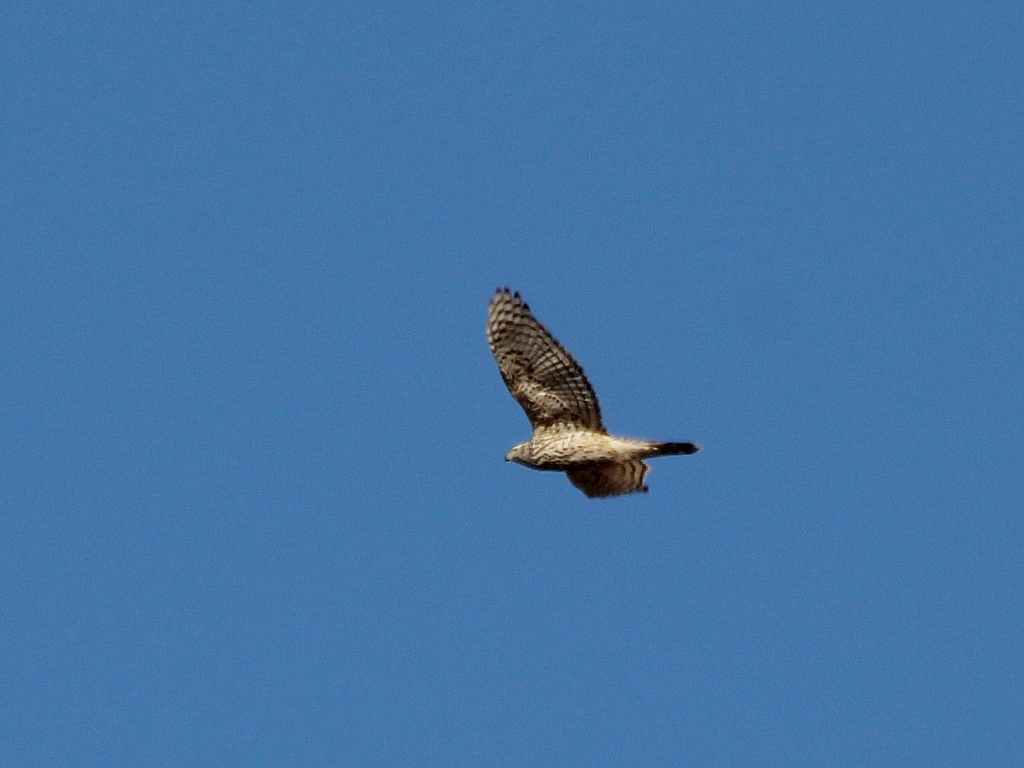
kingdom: Animalia
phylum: Chordata
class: Aves
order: Accipitriformes
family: Accipitridae
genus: Accipiter
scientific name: Accipiter gentilis
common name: Northern goshawk
